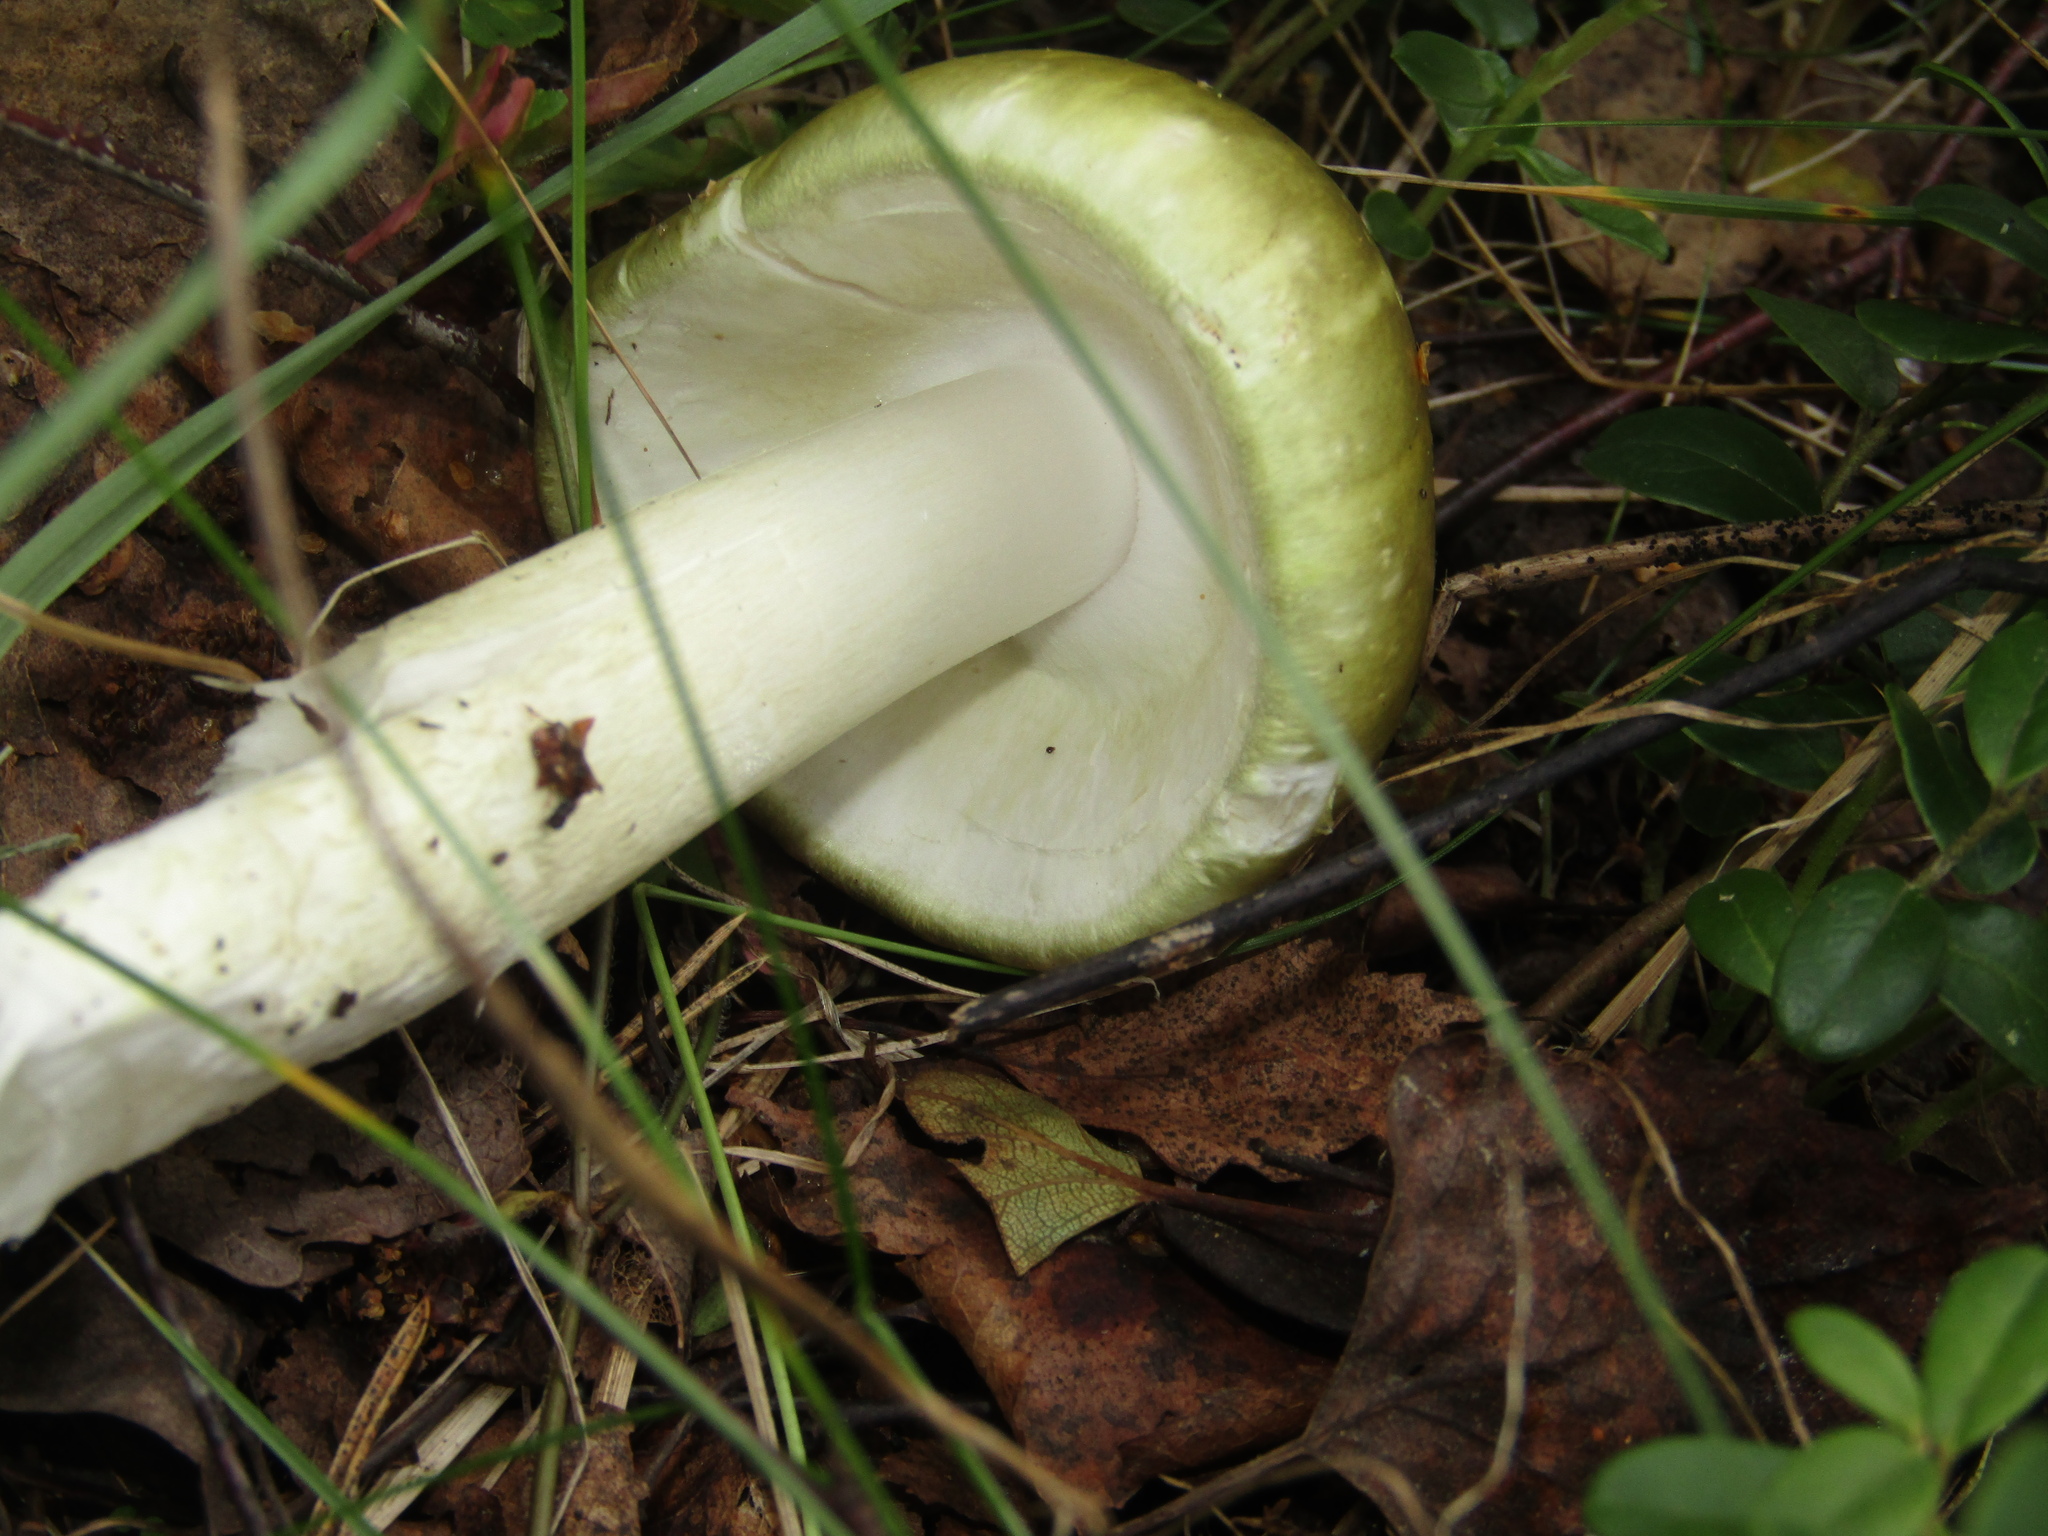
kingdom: Fungi
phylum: Basidiomycota
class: Agaricomycetes
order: Agaricales
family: Amanitaceae
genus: Amanita
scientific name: Amanita phalloides
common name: Death cap
